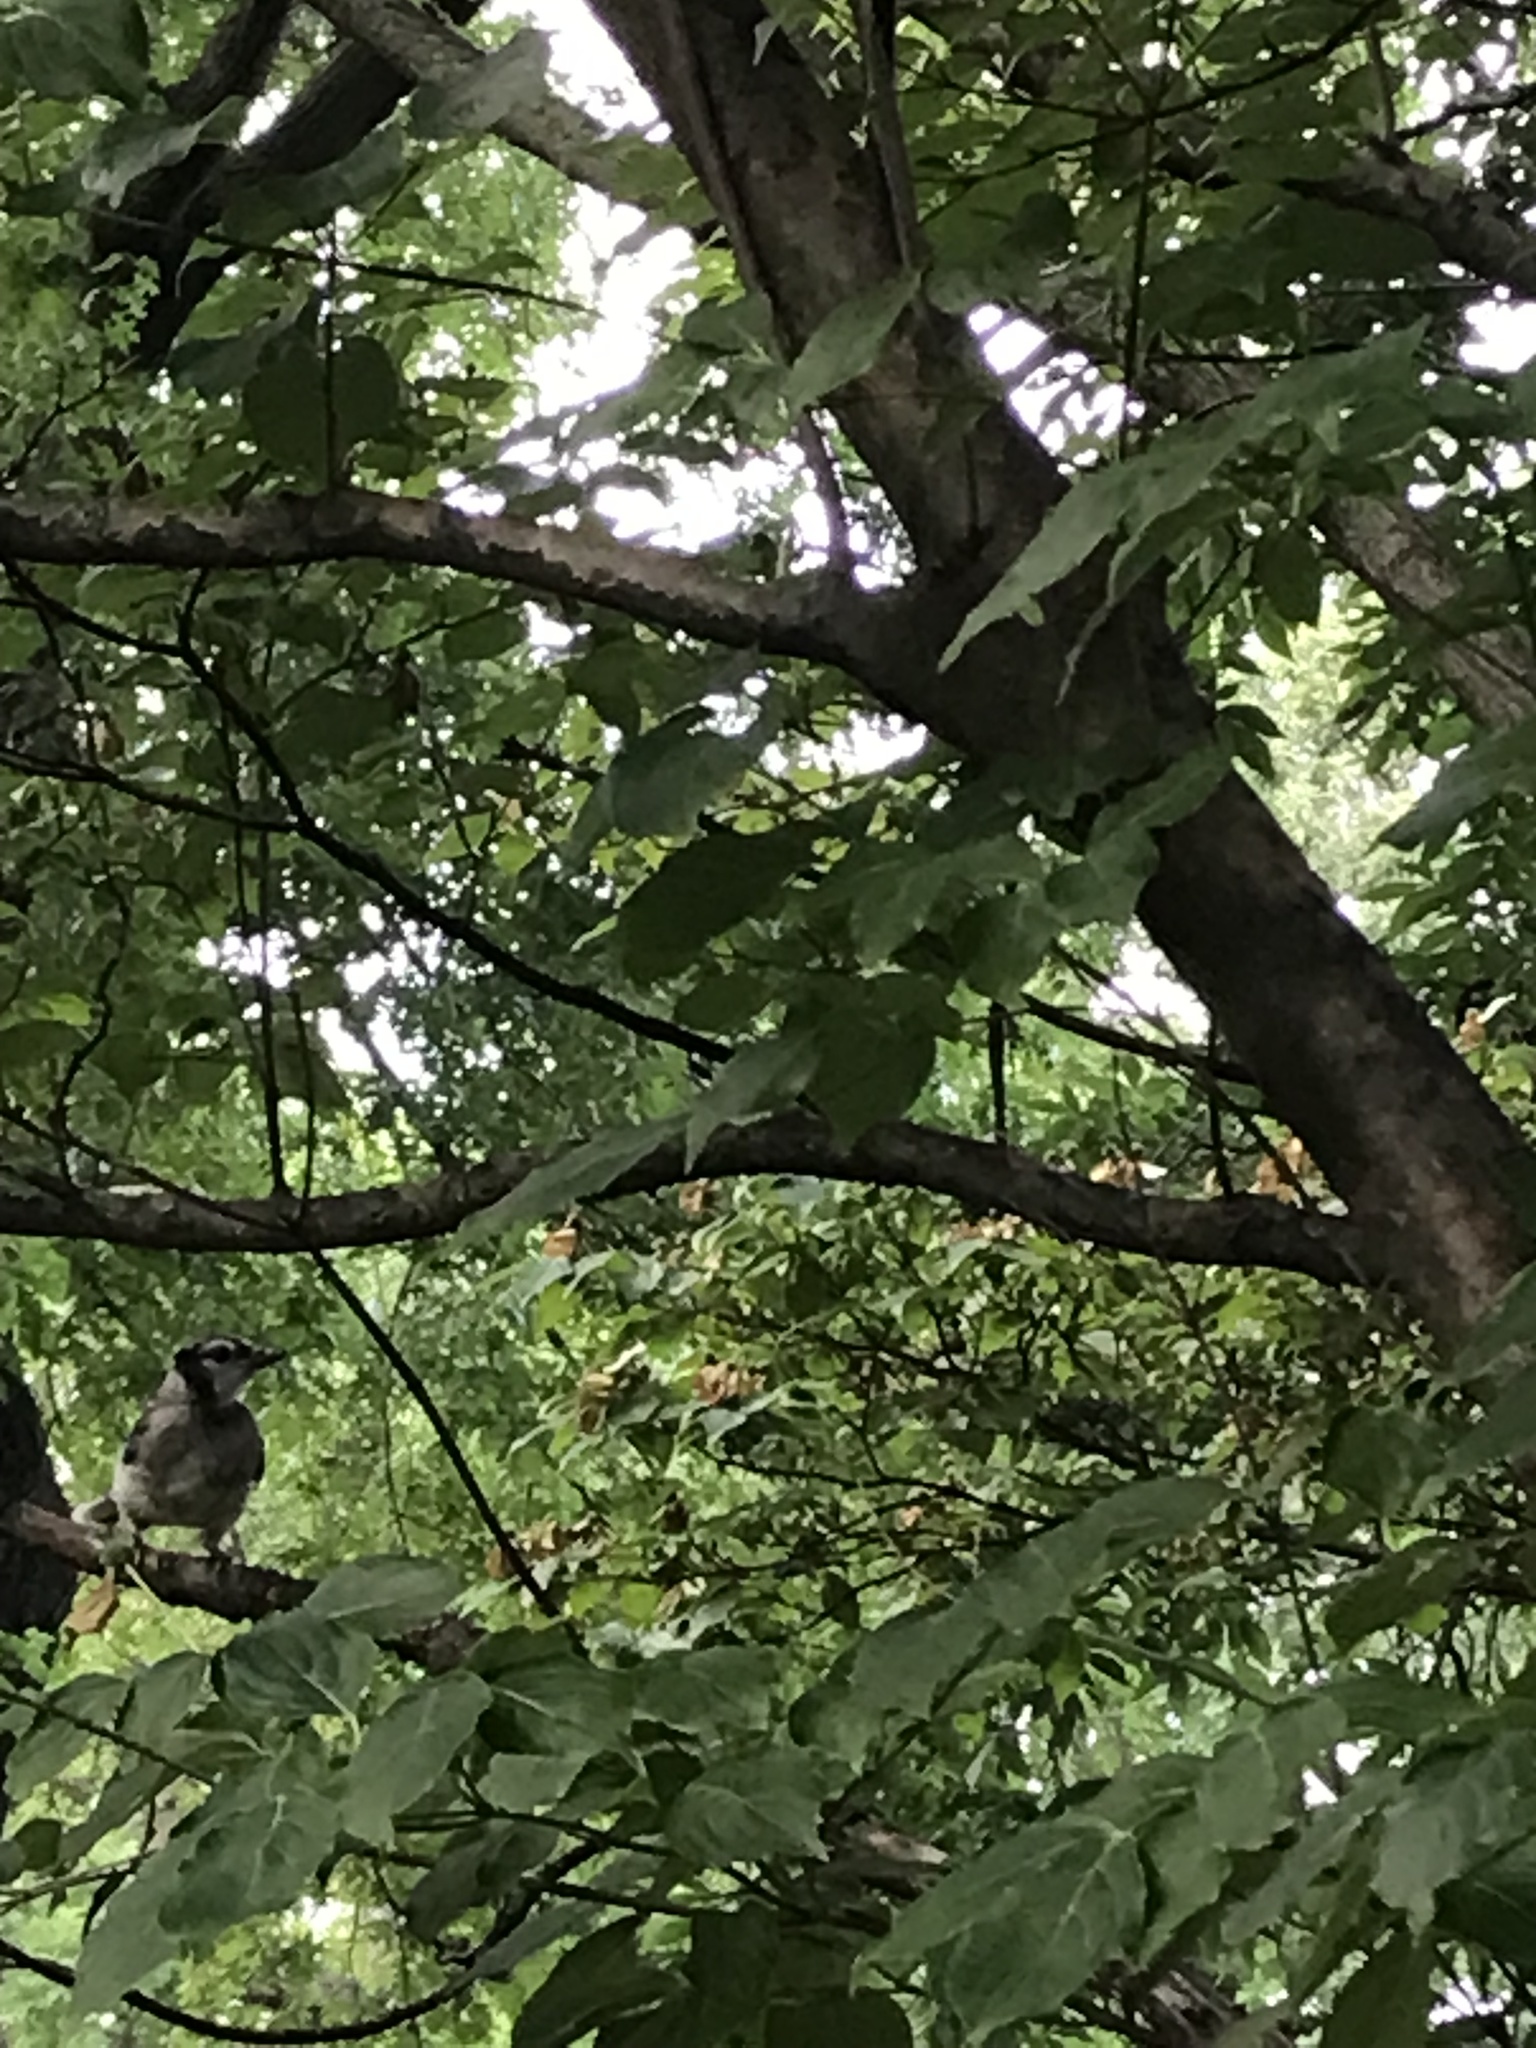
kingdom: Animalia
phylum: Chordata
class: Aves
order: Passeriformes
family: Corvidae
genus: Cyanocitta
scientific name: Cyanocitta cristata
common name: Blue jay
